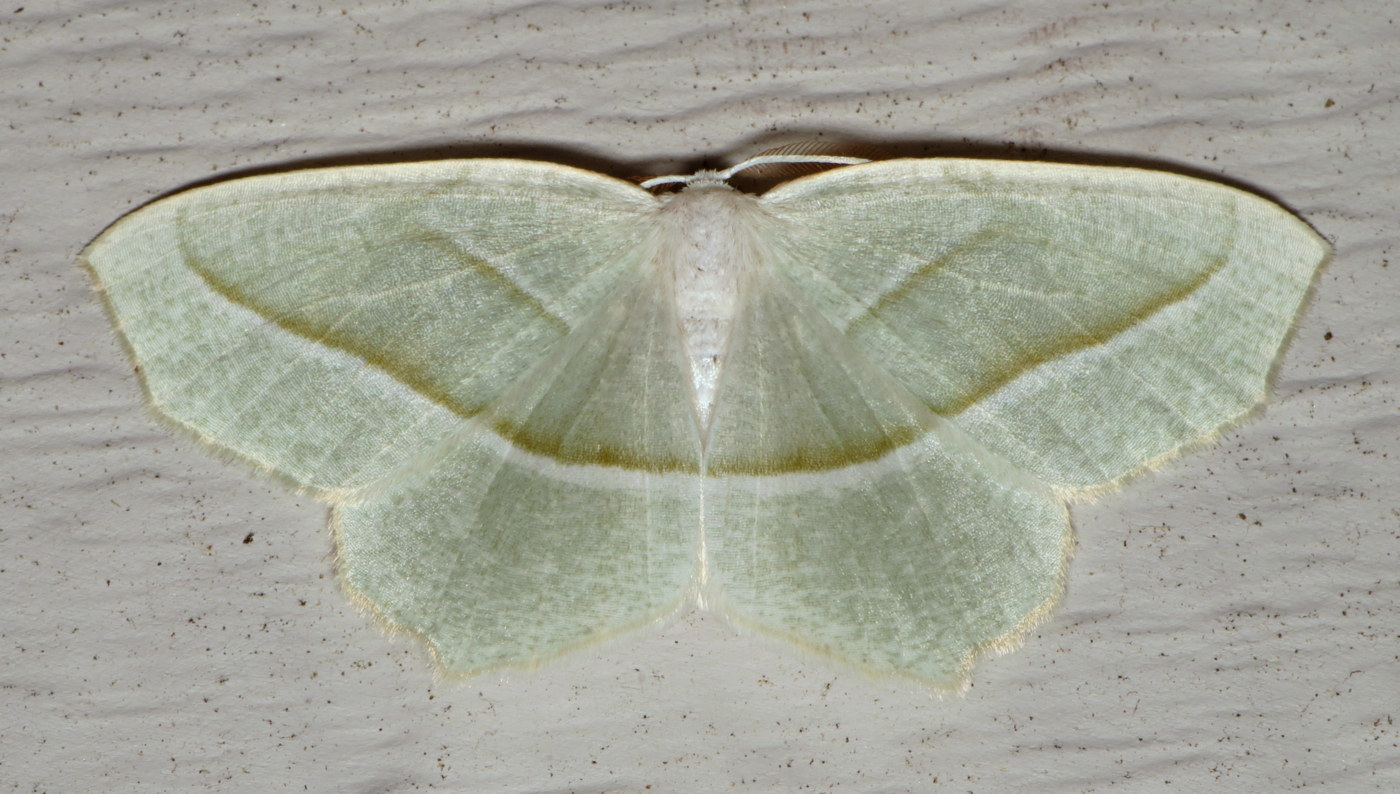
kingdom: Animalia
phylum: Arthropoda
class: Insecta
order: Lepidoptera
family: Geometridae
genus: Campaea
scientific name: Campaea perlata
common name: Fringed looper
